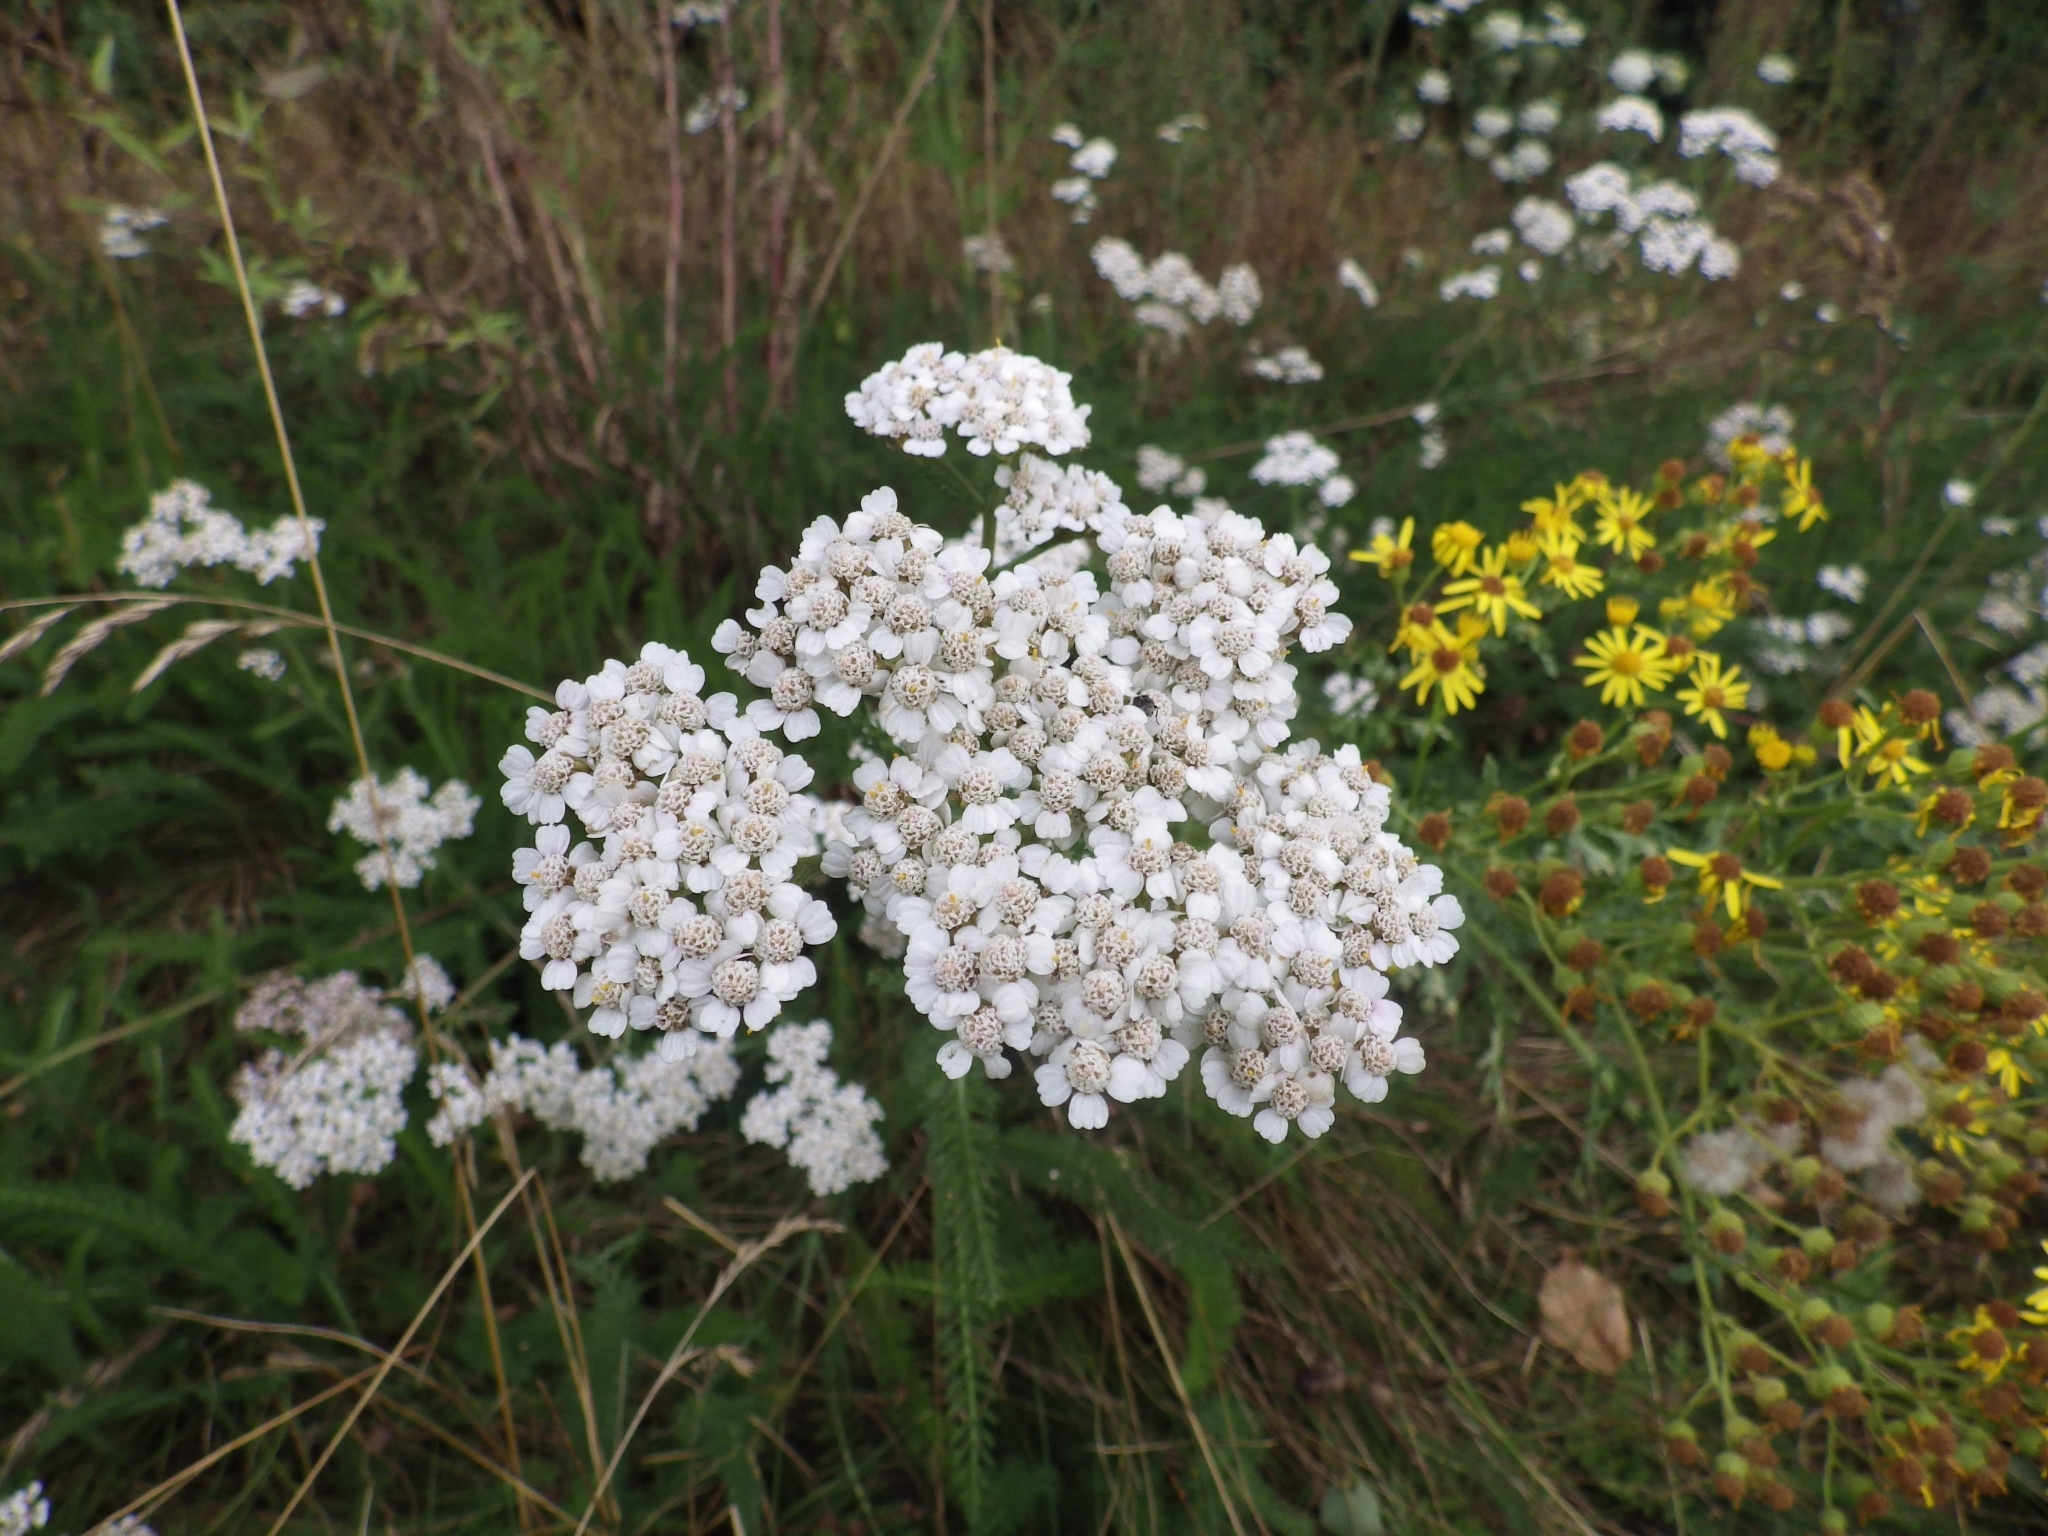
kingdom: Plantae
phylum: Tracheophyta
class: Magnoliopsida
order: Asterales
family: Asteraceae
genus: Achillea
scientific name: Achillea millefolium
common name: Yarrow
